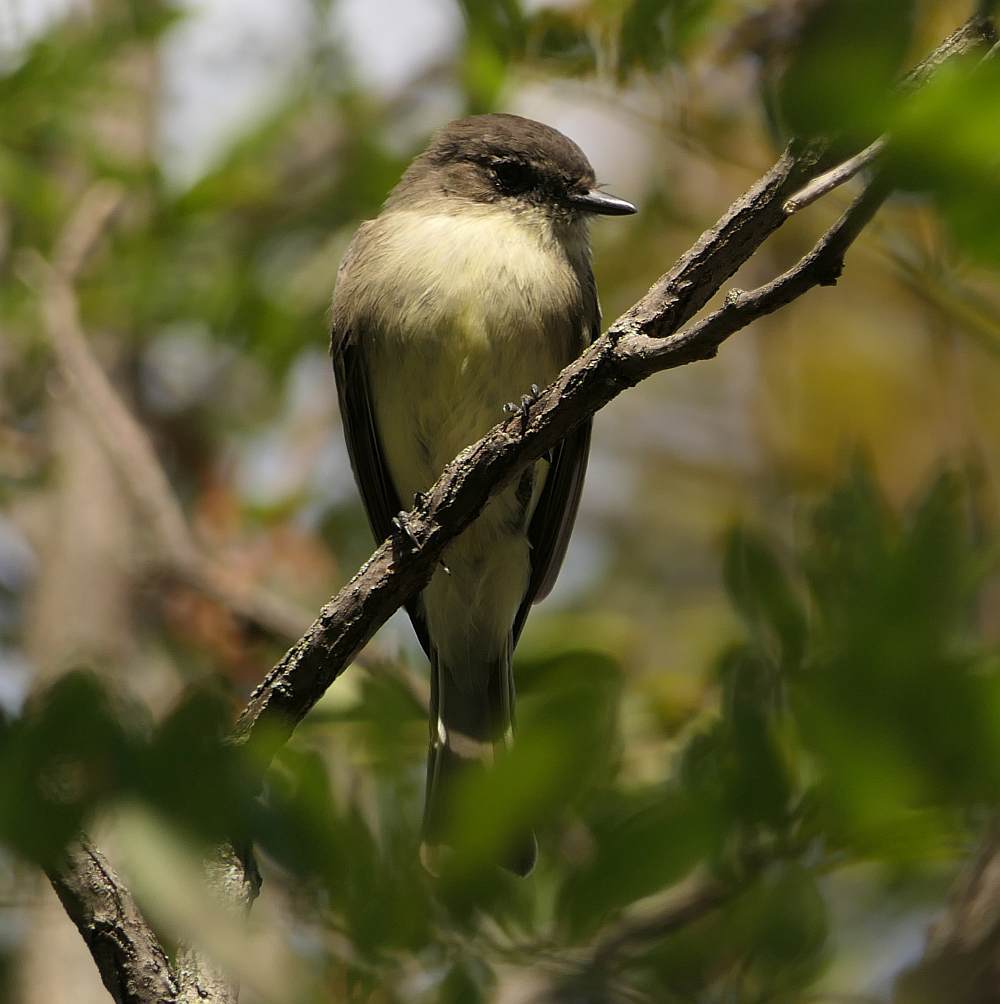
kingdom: Animalia
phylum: Chordata
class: Aves
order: Passeriformes
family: Tyrannidae
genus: Sayornis
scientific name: Sayornis phoebe
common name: Eastern phoebe
